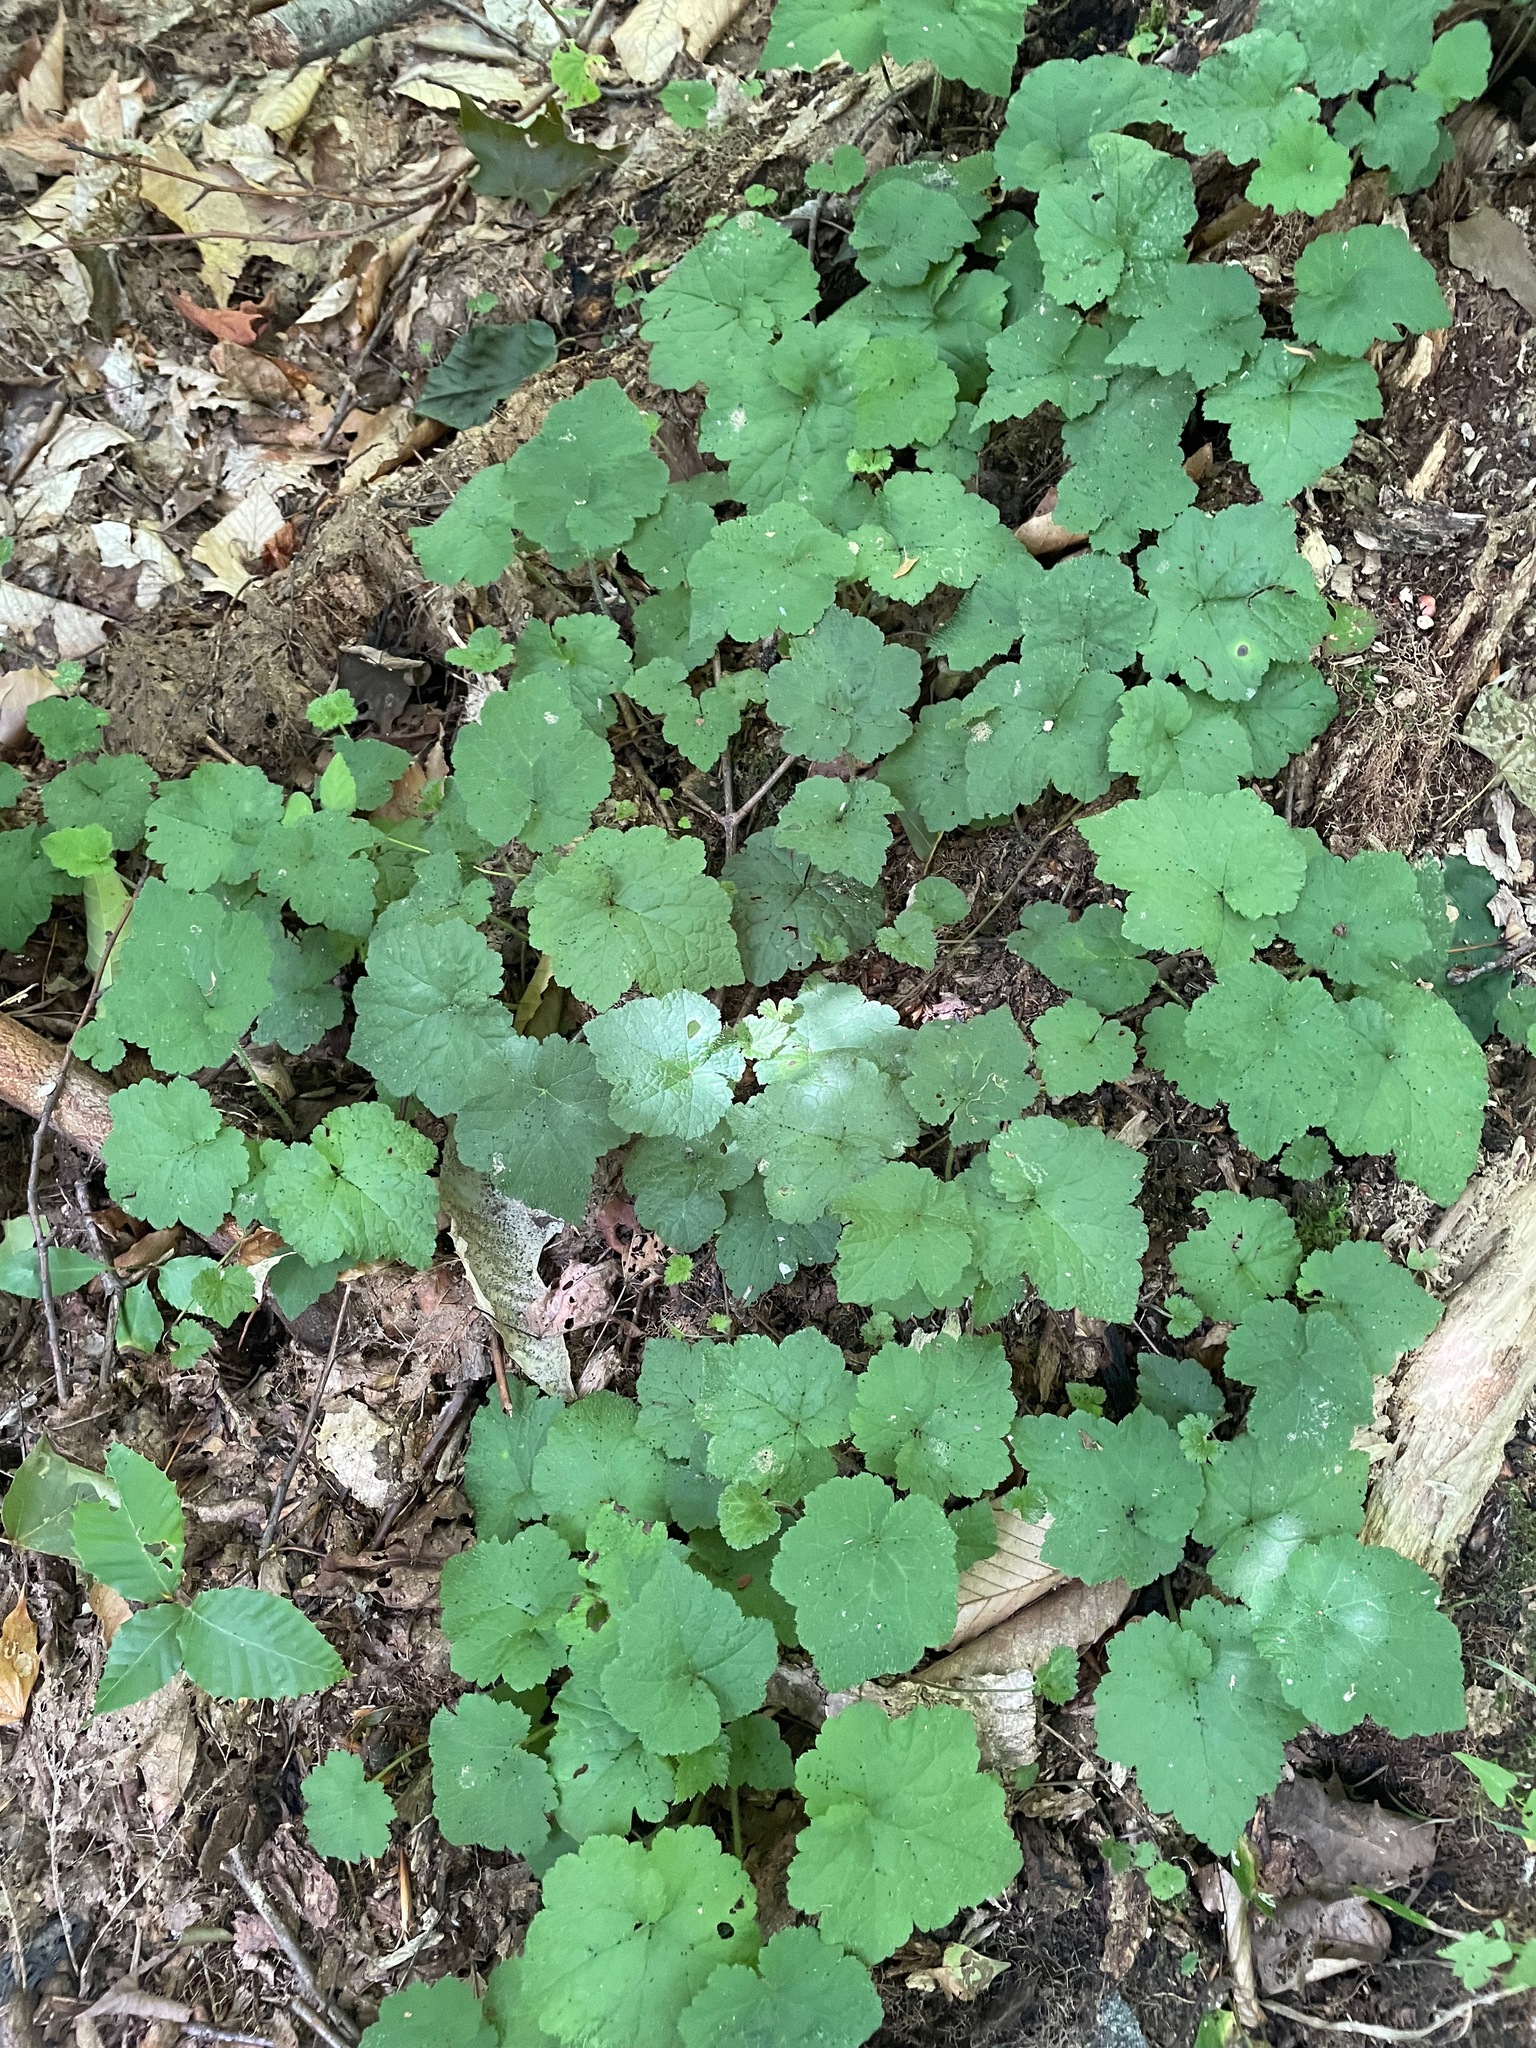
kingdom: Plantae
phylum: Tracheophyta
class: Magnoliopsida
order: Saxifragales
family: Saxifragaceae
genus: Tiarella
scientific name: Tiarella stolonifera
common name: Stoloniferous foamflower
